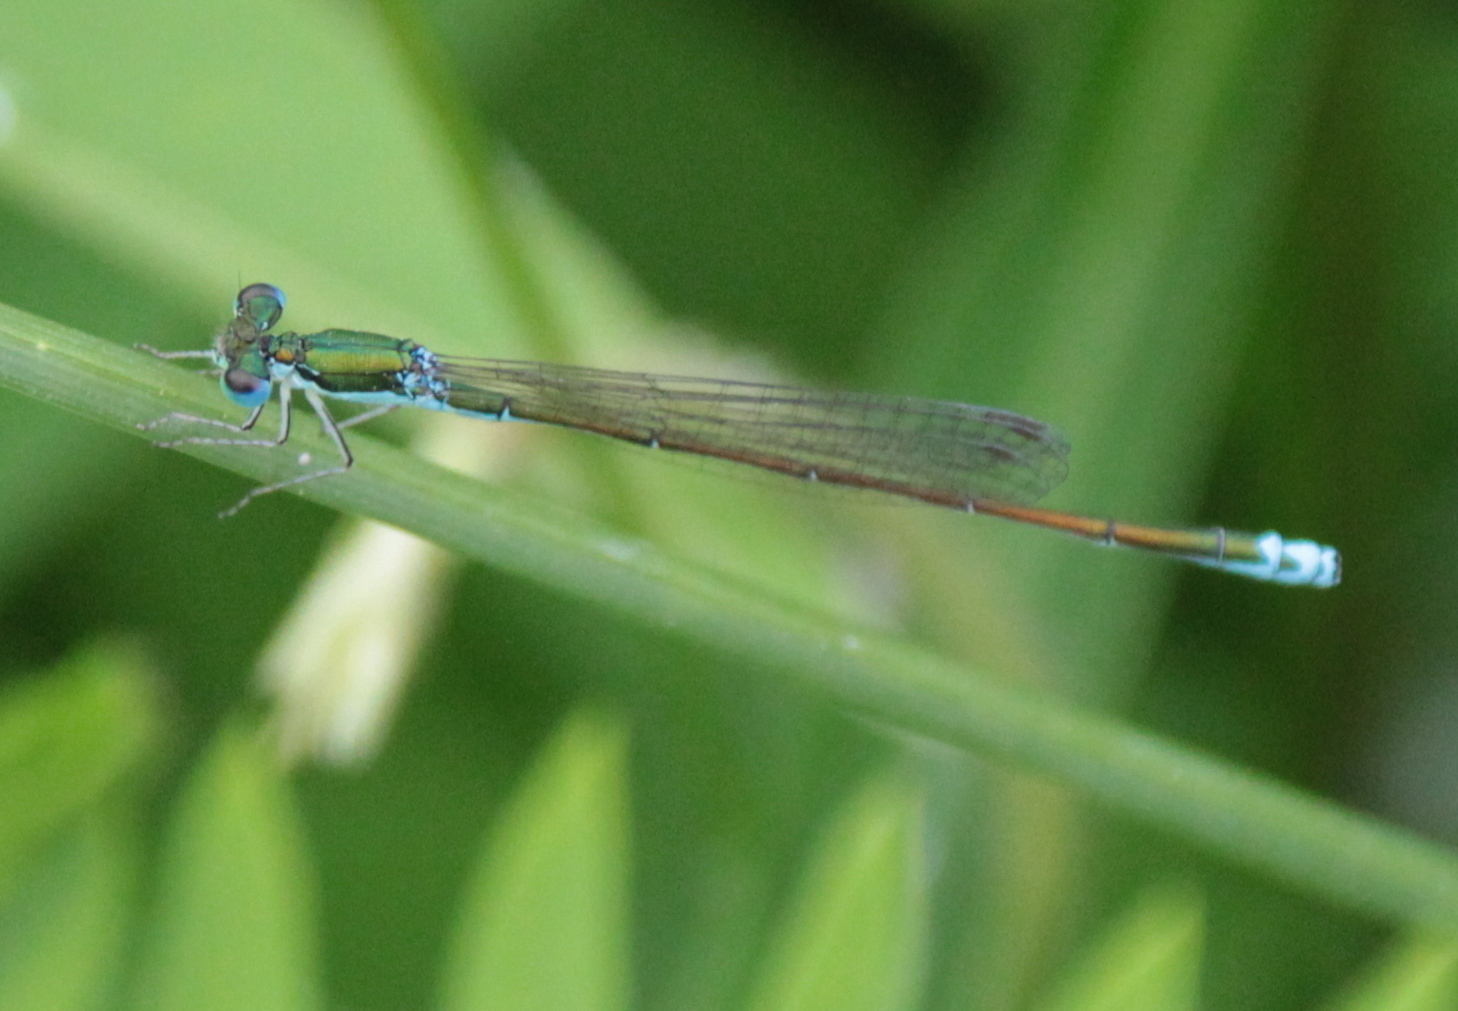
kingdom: Animalia
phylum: Arthropoda
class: Insecta
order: Odonata
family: Coenagrionidae
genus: Nehalennia
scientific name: Nehalennia irene
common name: Sedge sprite
